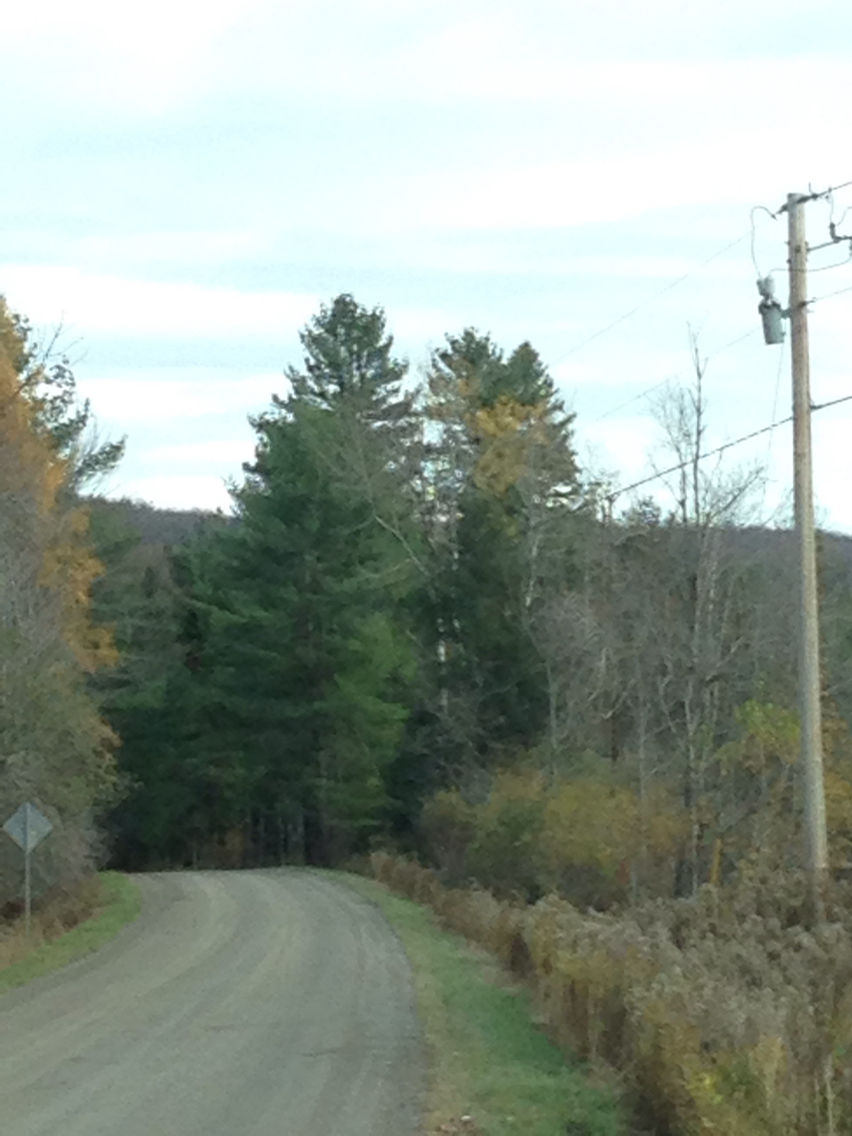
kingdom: Plantae
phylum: Tracheophyta
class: Pinopsida
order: Pinales
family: Pinaceae
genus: Pinus
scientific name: Pinus strobus
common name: Weymouth pine
